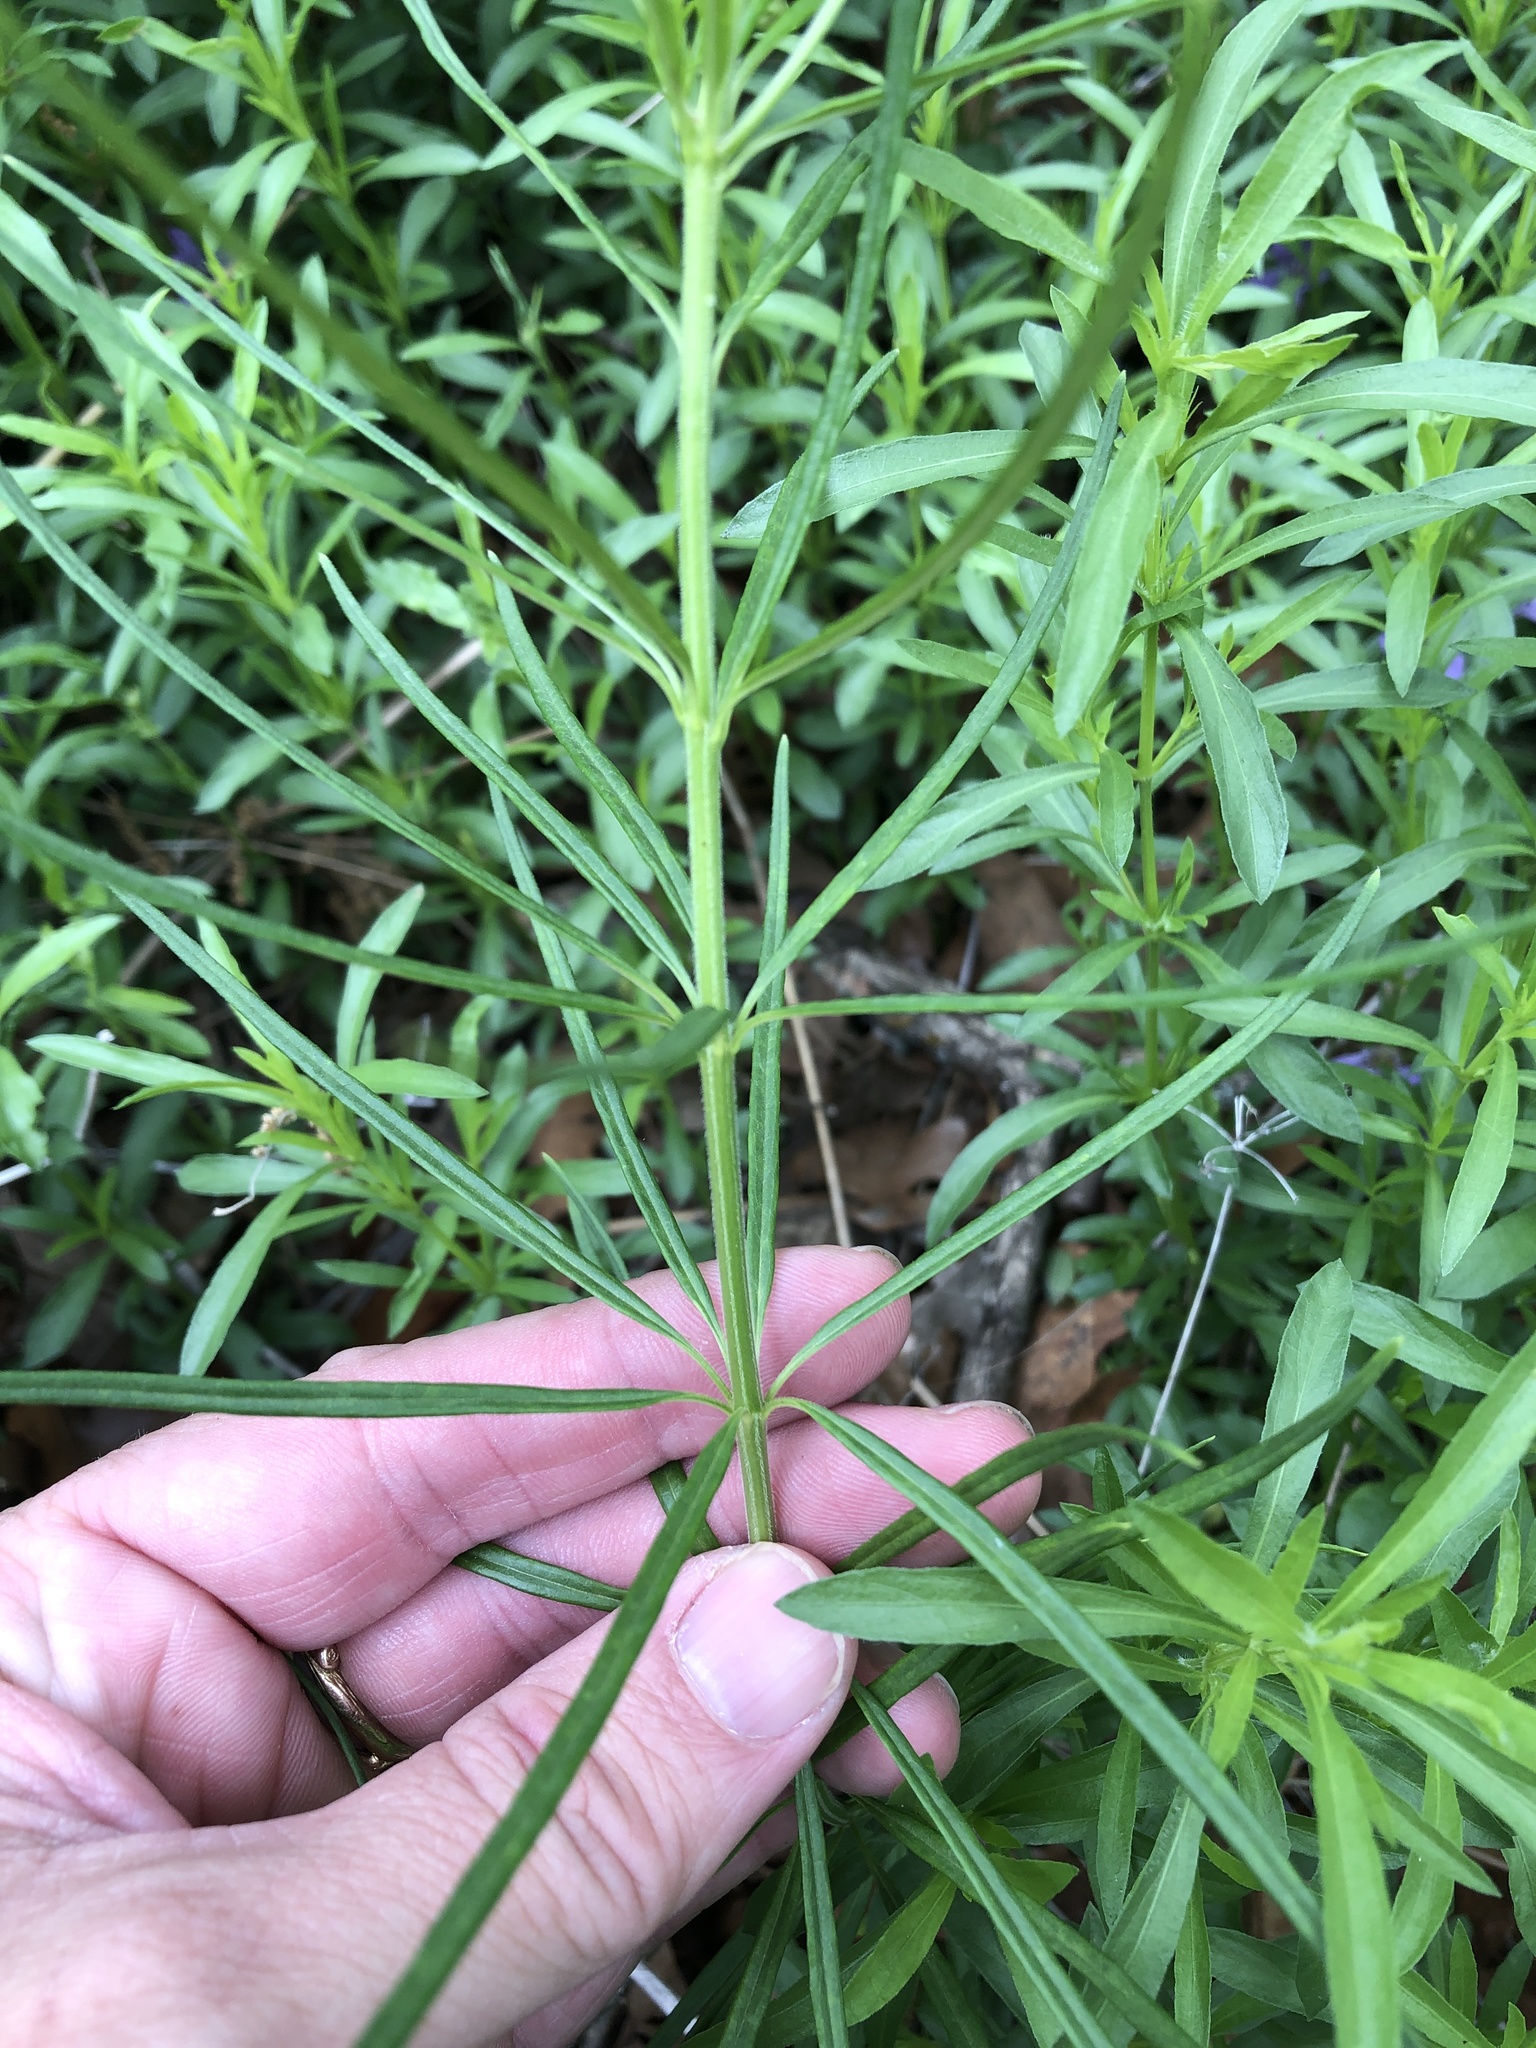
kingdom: Plantae
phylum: Tracheophyta
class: Magnoliopsida
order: Gentianales
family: Apocynaceae
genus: Asclepias
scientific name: Asclepias verticillata
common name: Eastern whorled milkweed
